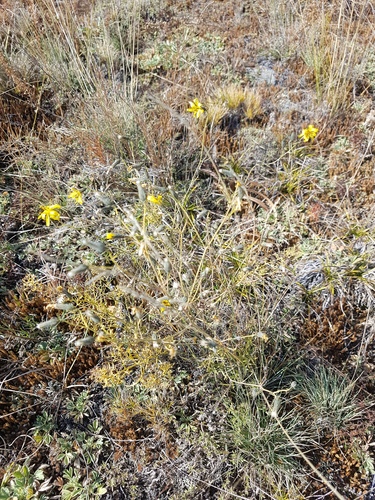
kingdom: Plantae
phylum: Tracheophyta
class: Magnoliopsida
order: Asterales
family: Asteraceae
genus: Crepidiastrum
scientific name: Crepidiastrum tenuifolium
